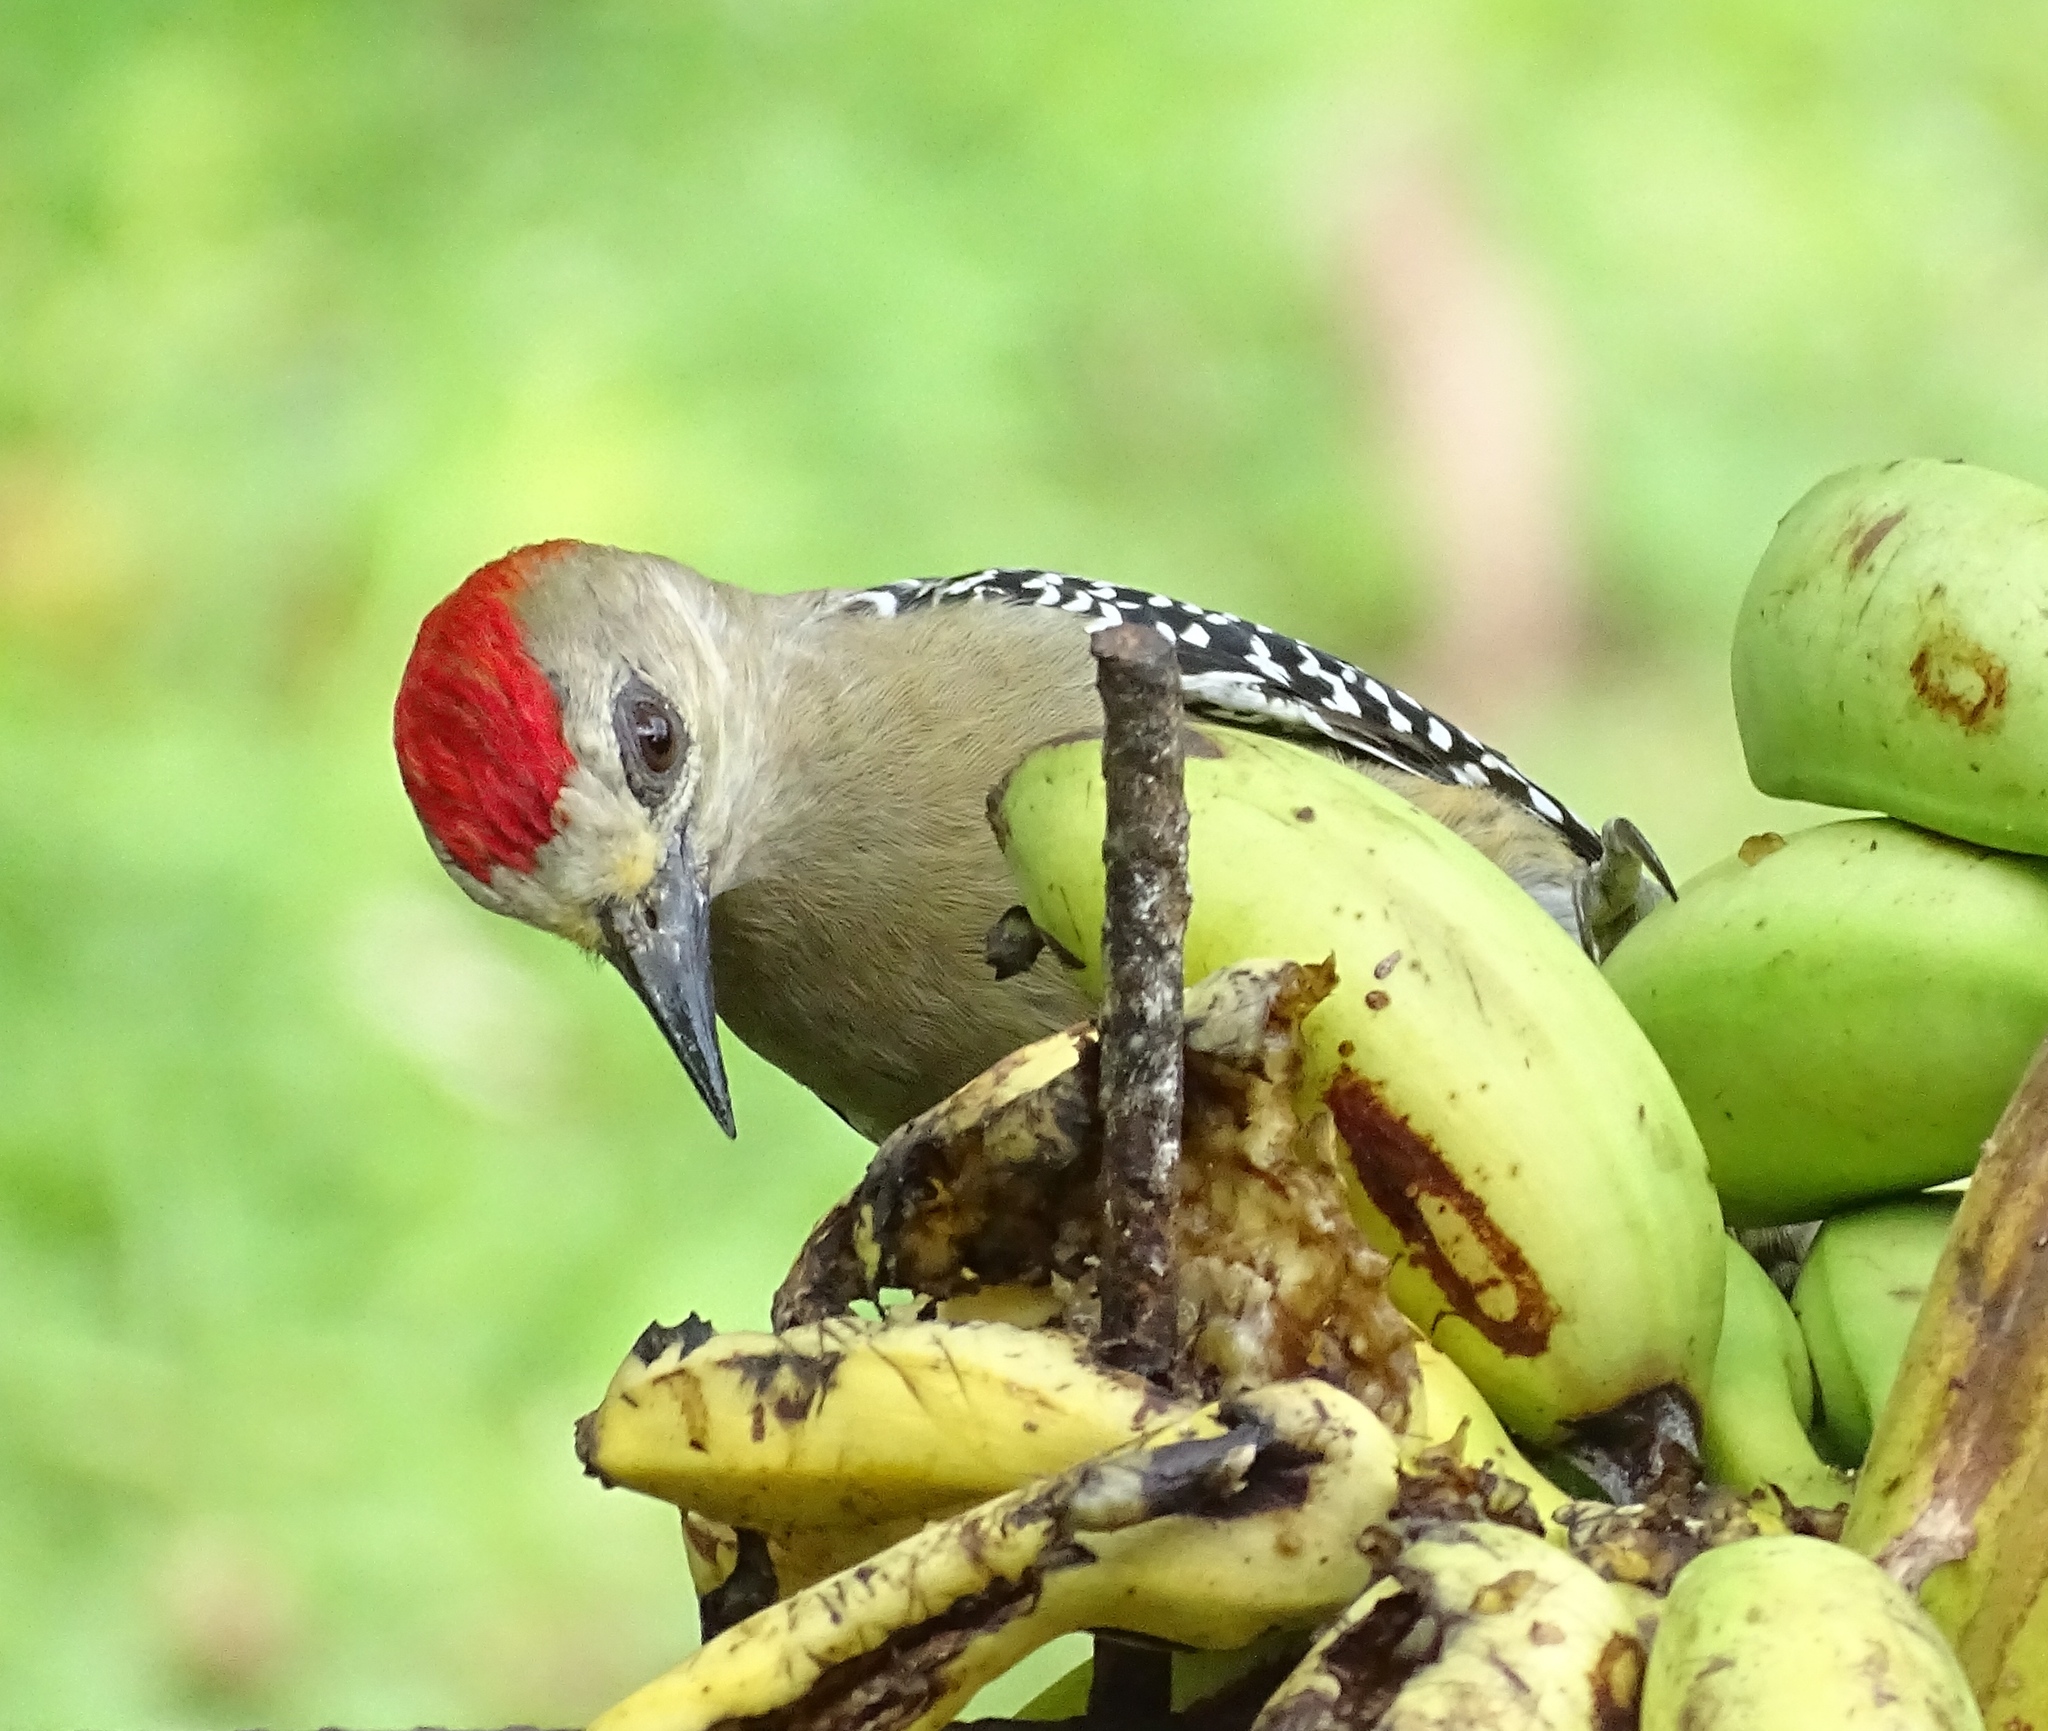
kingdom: Animalia
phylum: Chordata
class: Aves
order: Piciformes
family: Picidae
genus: Melanerpes
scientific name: Melanerpes rubricapillus
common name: Red-crowned woodpecker
